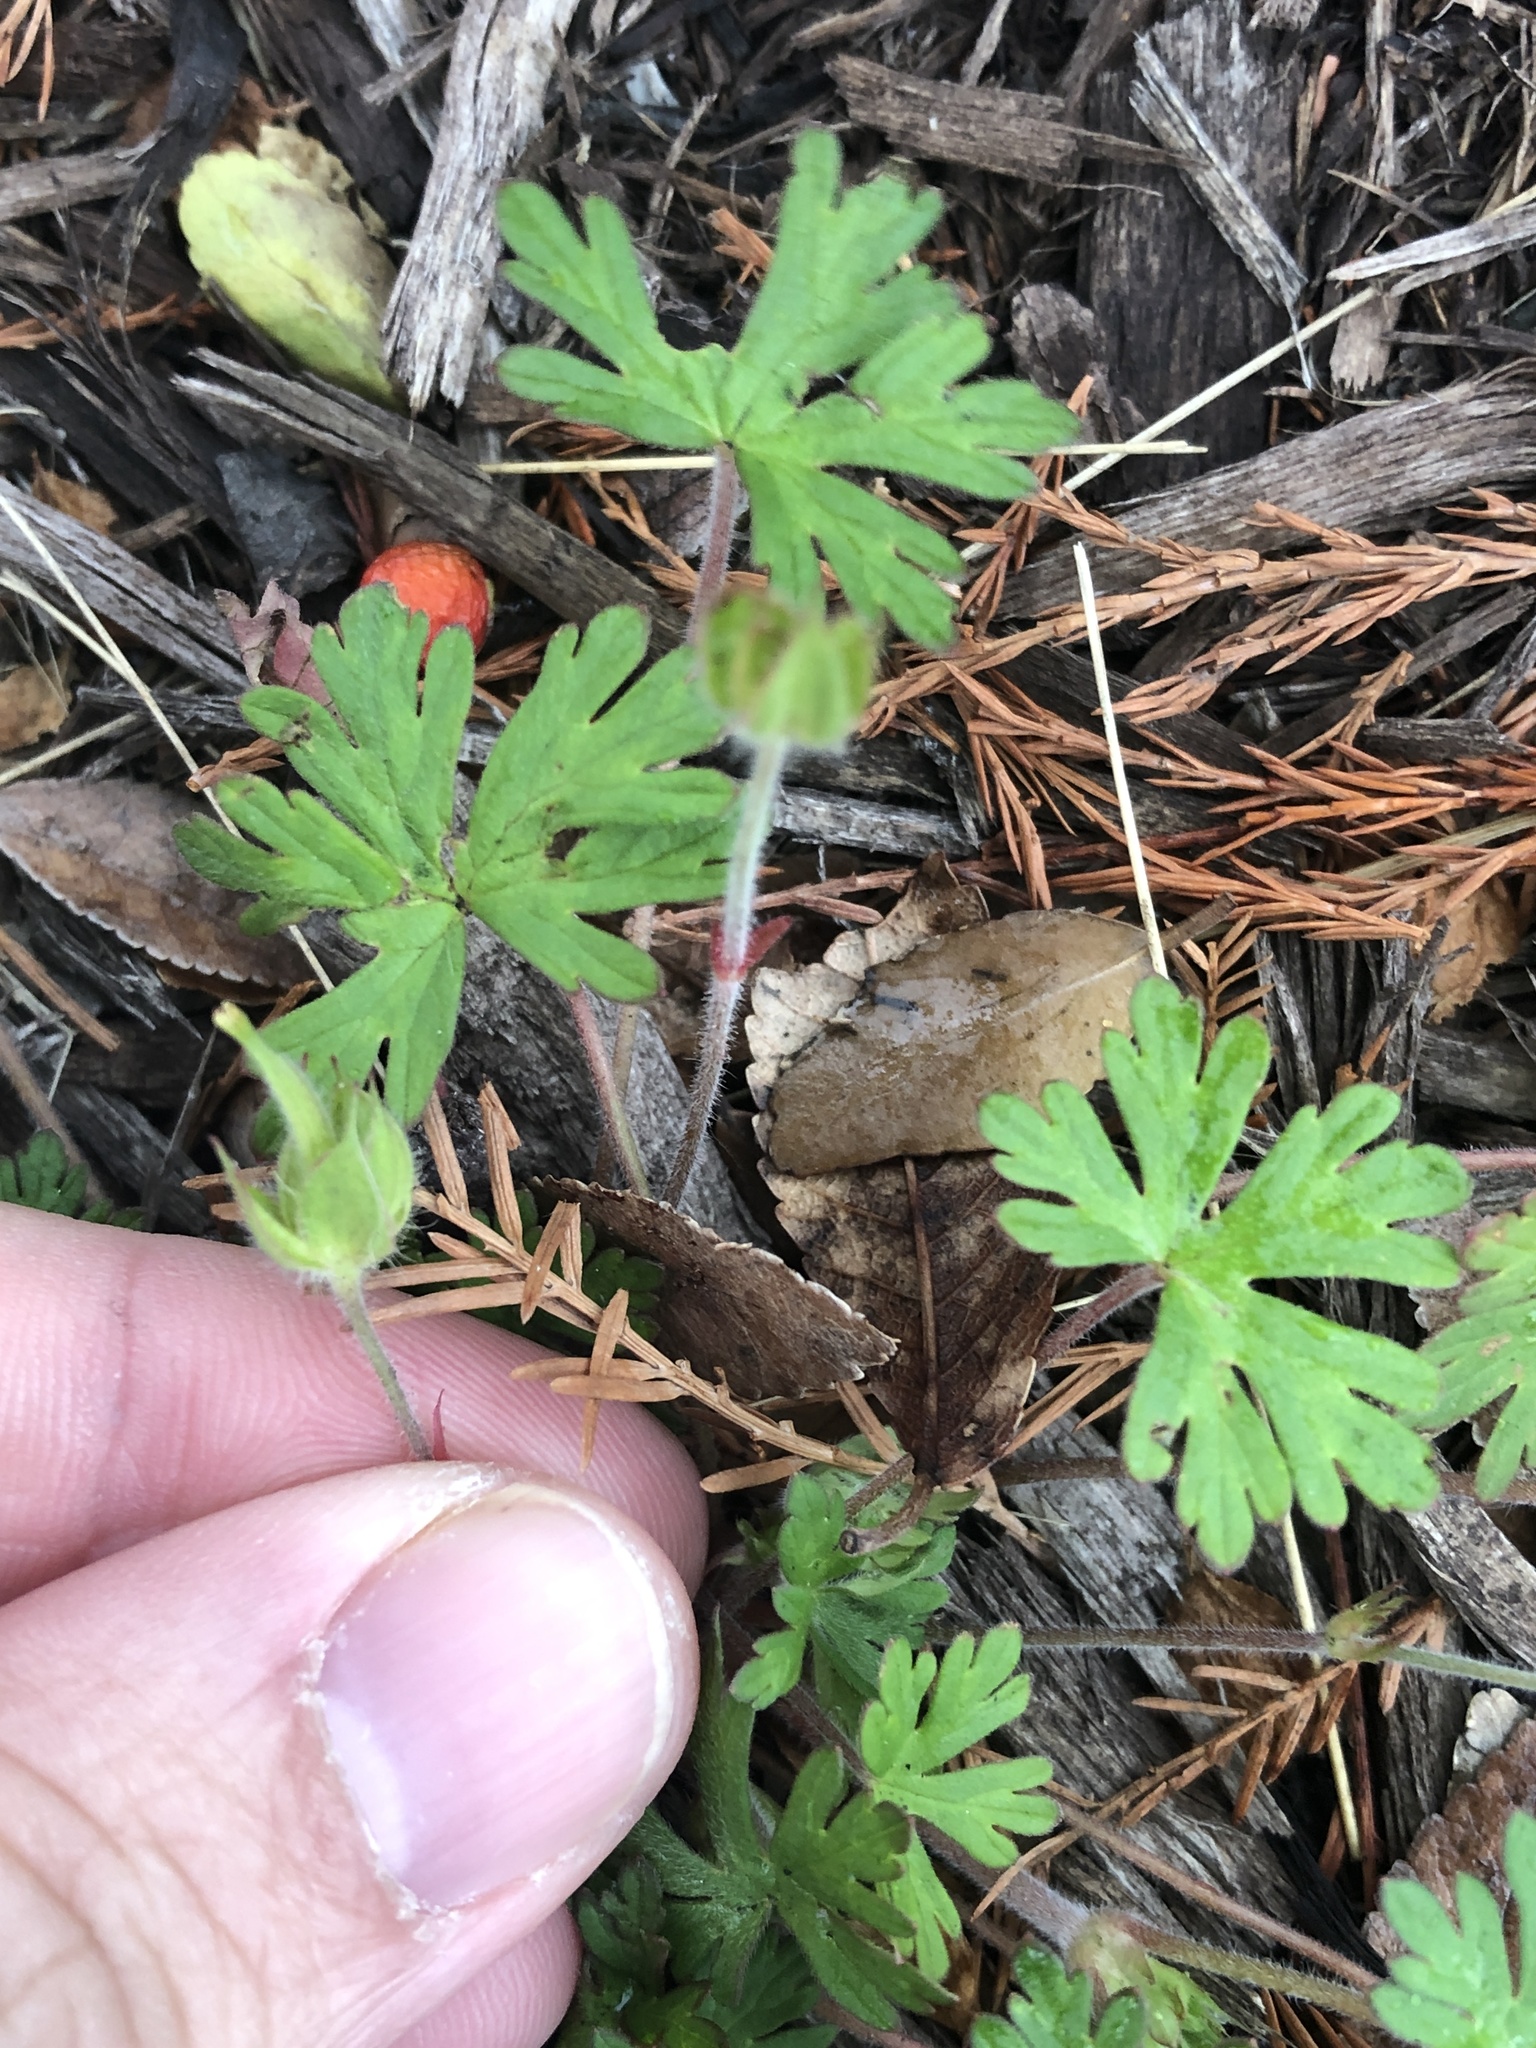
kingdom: Plantae
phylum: Tracheophyta
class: Magnoliopsida
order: Geraniales
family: Geraniaceae
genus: Geranium
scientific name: Geranium carolinianum
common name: Carolina crane's-bill
